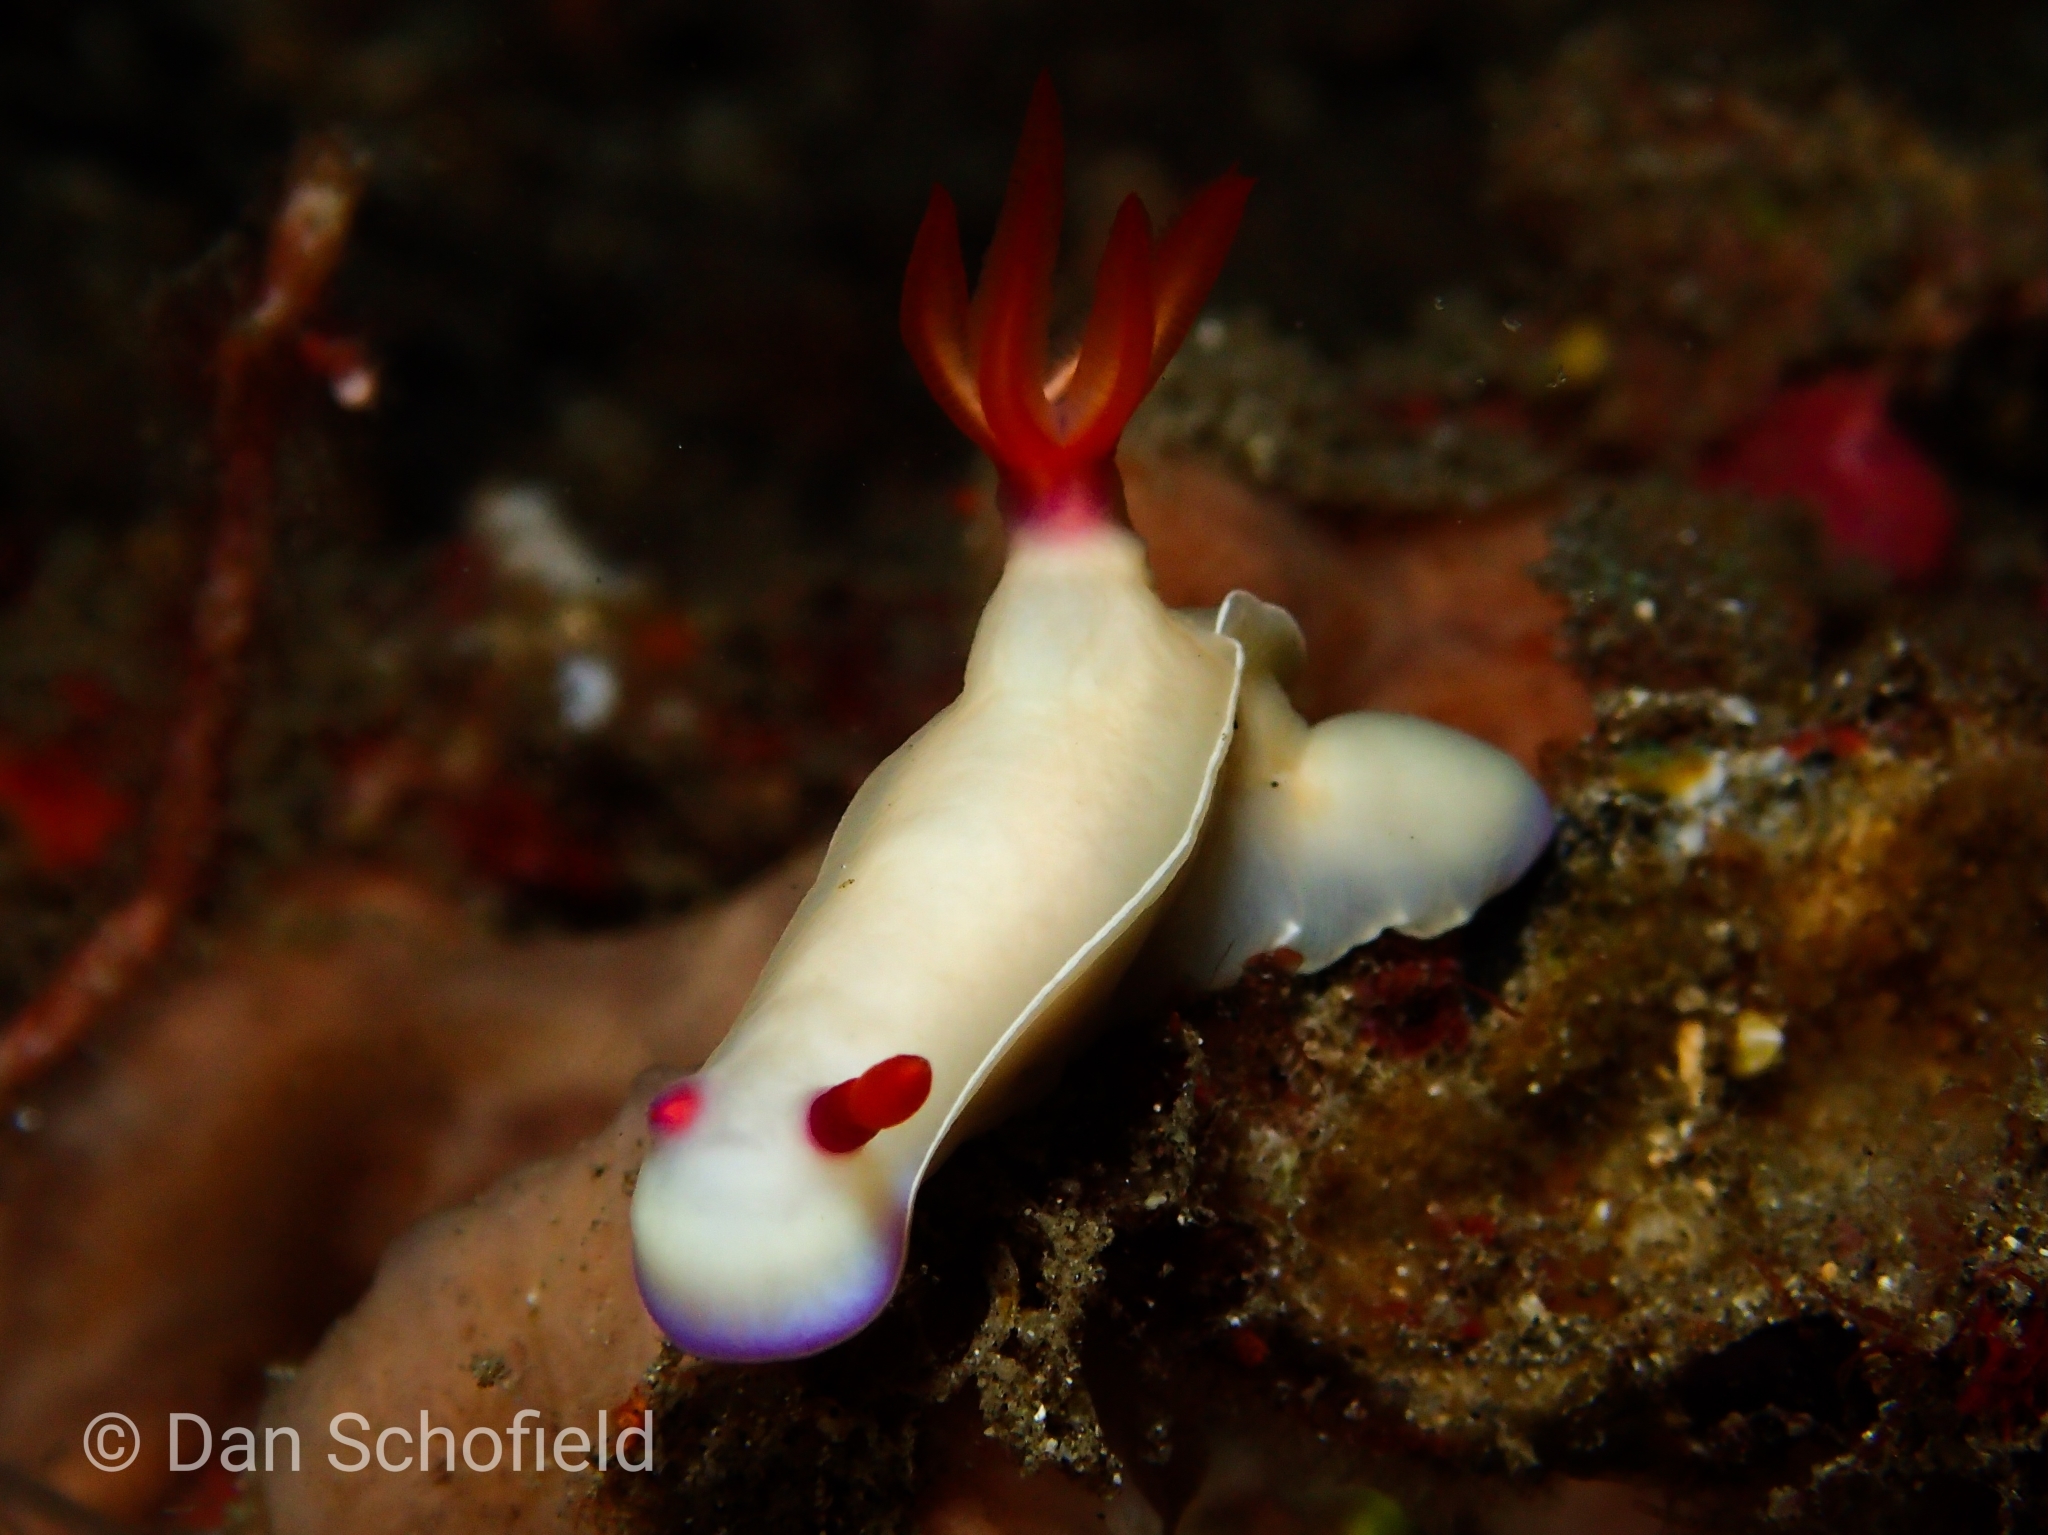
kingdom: Animalia
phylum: Mollusca
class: Gastropoda
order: Nudibranchia
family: Chromodorididae
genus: Hypselodoris
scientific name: Hypselodoris bullockii
